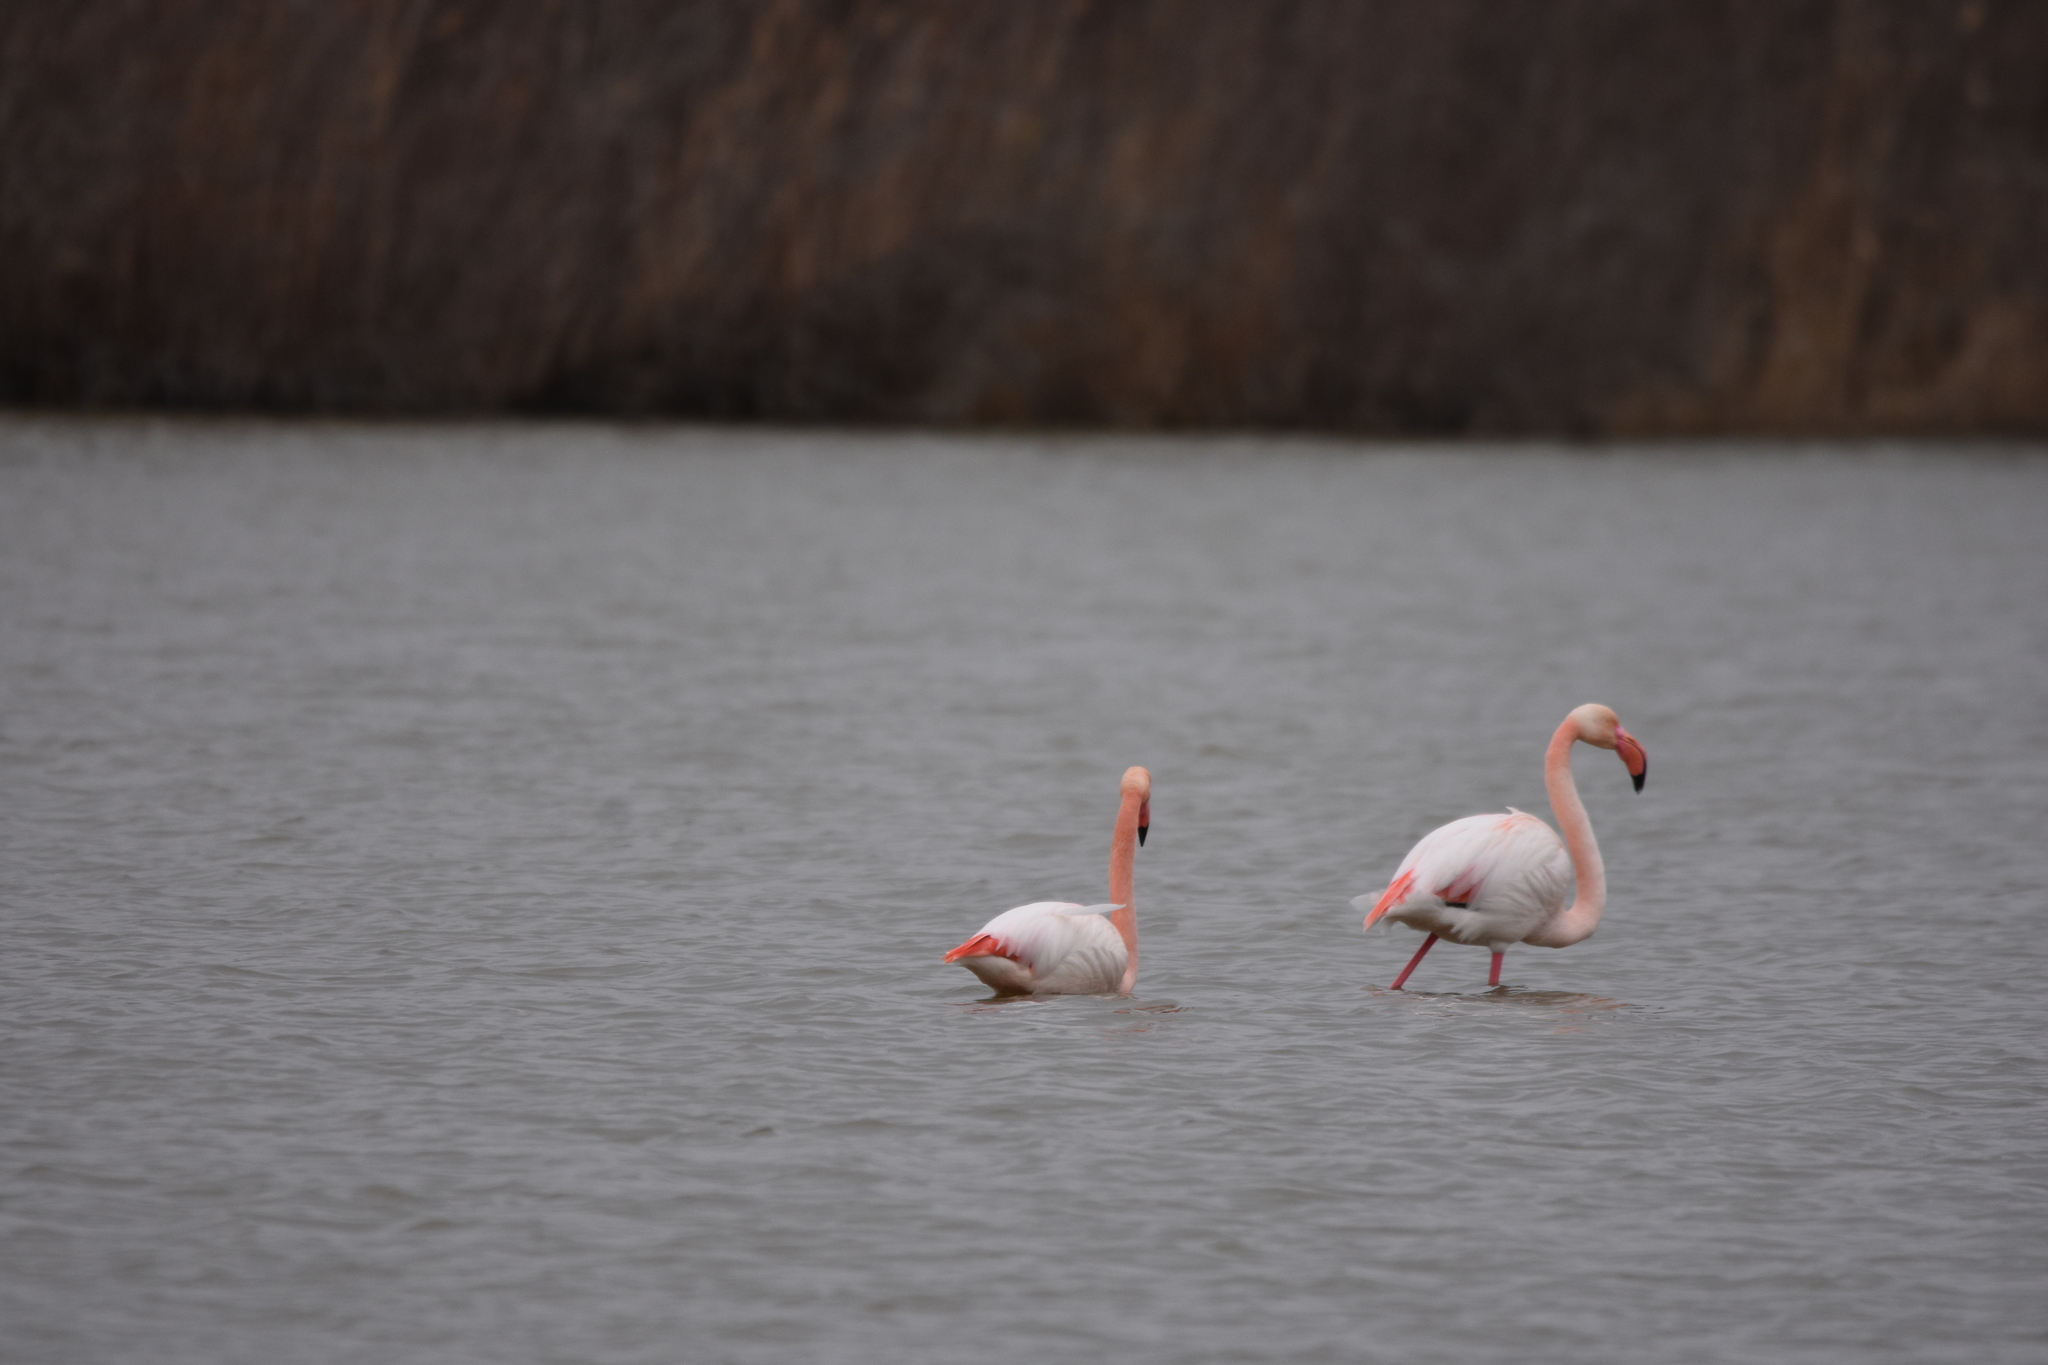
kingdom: Animalia
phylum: Chordata
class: Aves
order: Phoenicopteriformes
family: Phoenicopteridae
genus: Phoenicopterus
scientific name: Phoenicopterus roseus
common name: Greater flamingo
